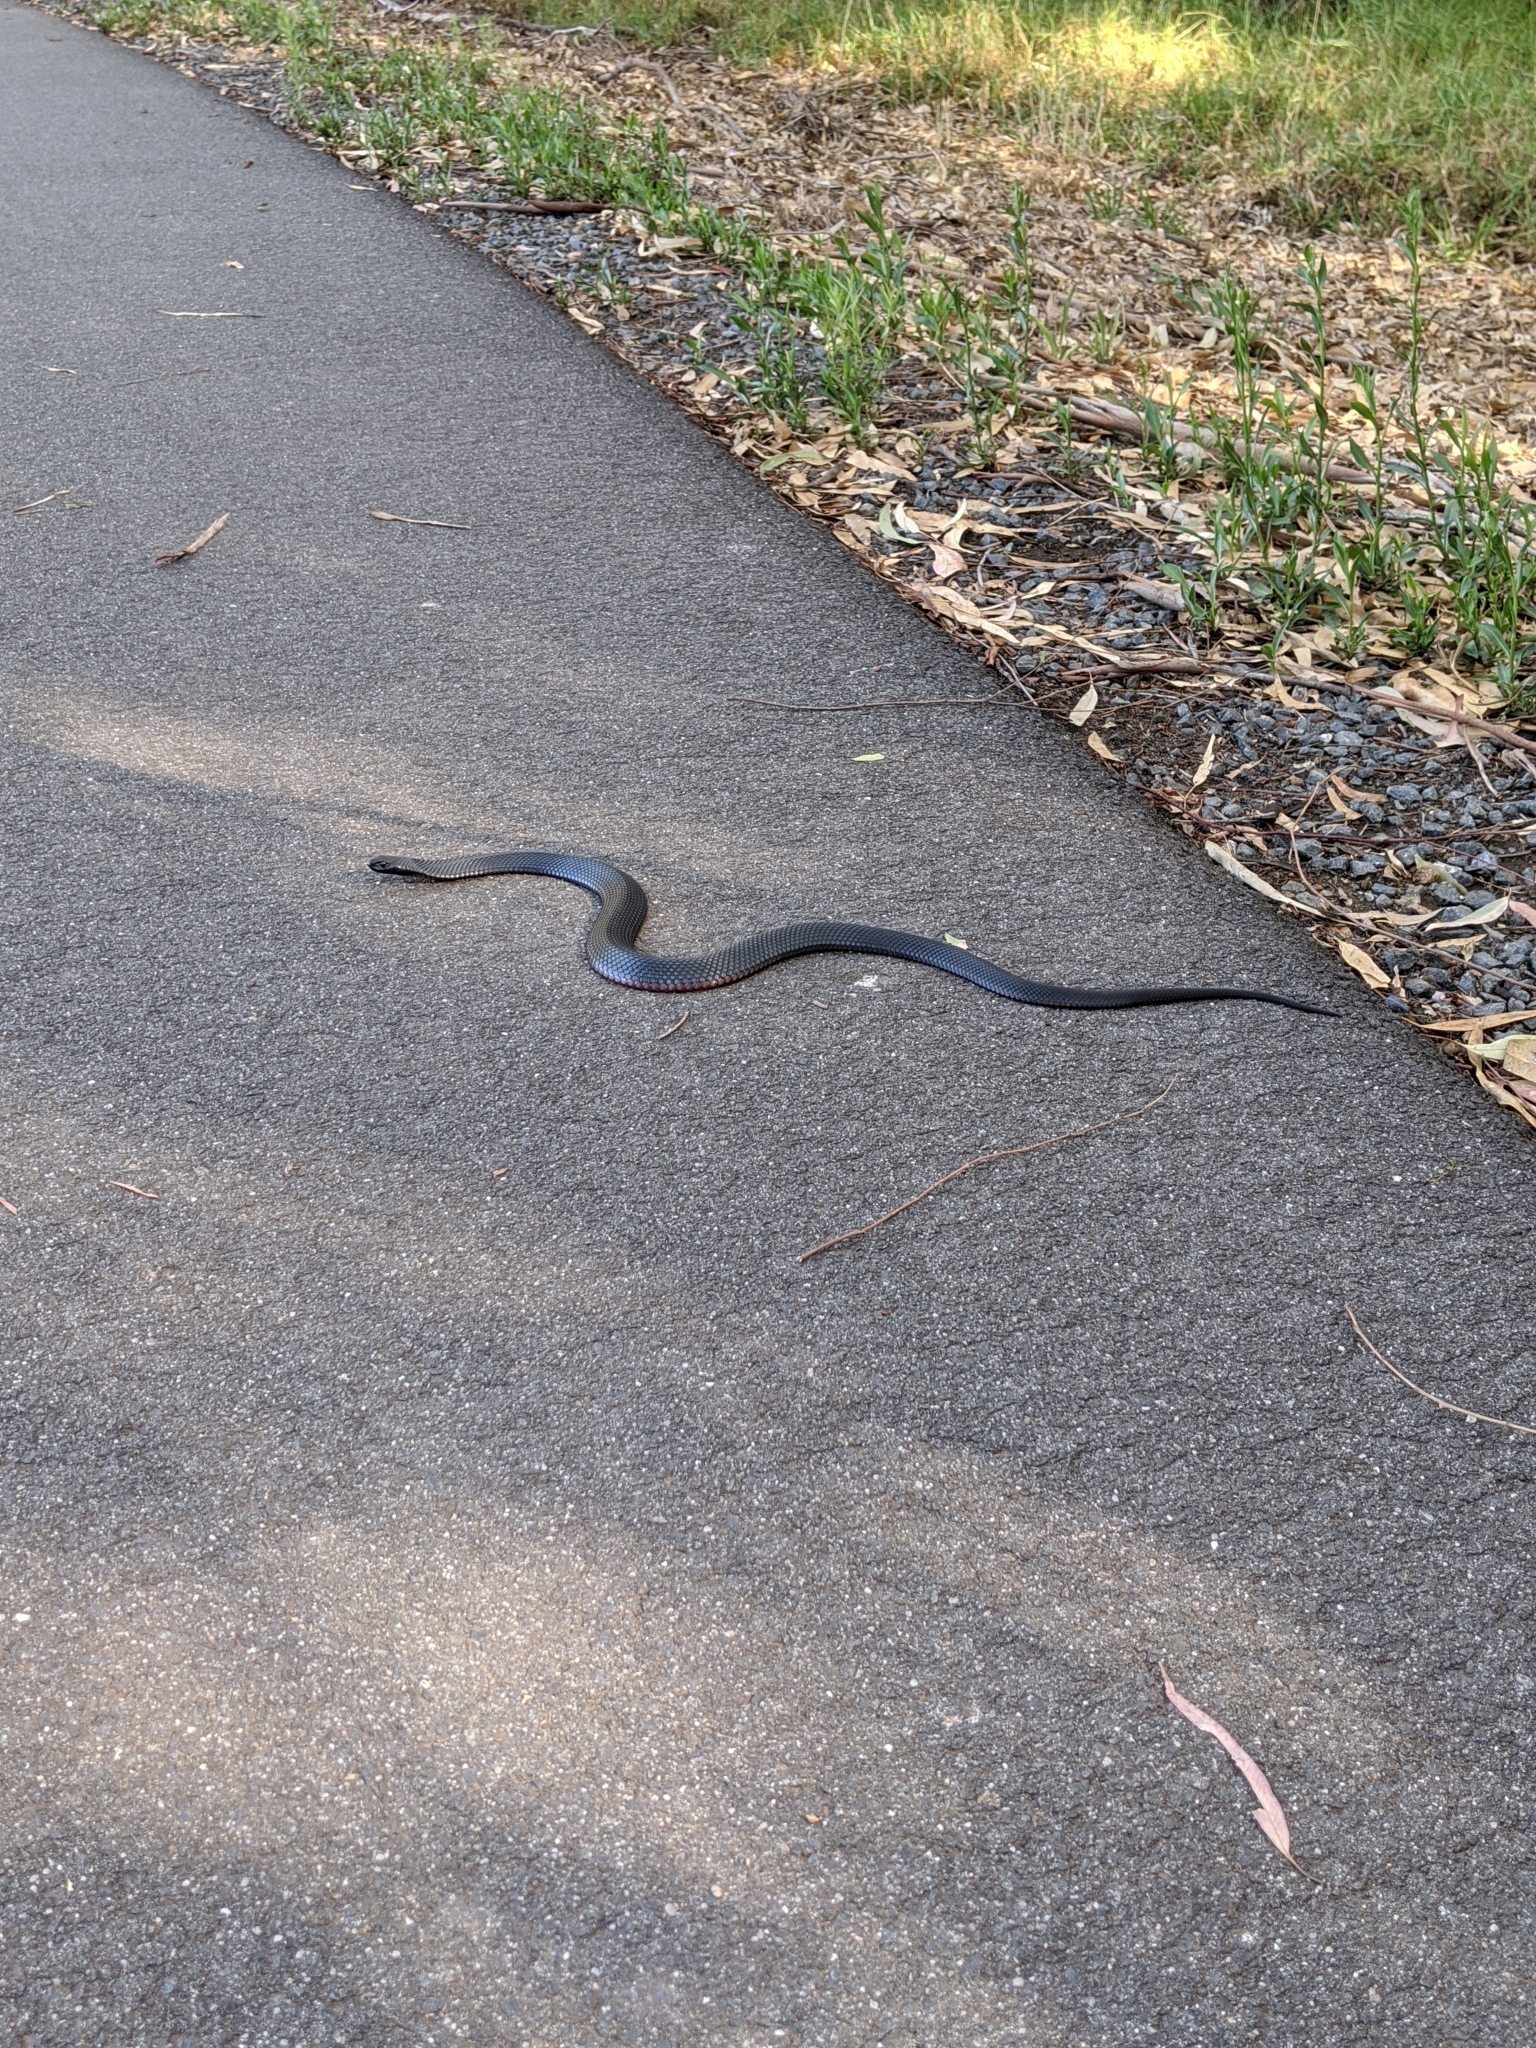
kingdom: Animalia
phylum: Chordata
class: Squamata
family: Elapidae
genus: Pseudechis
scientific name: Pseudechis porphyriacus
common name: Australian black snake
